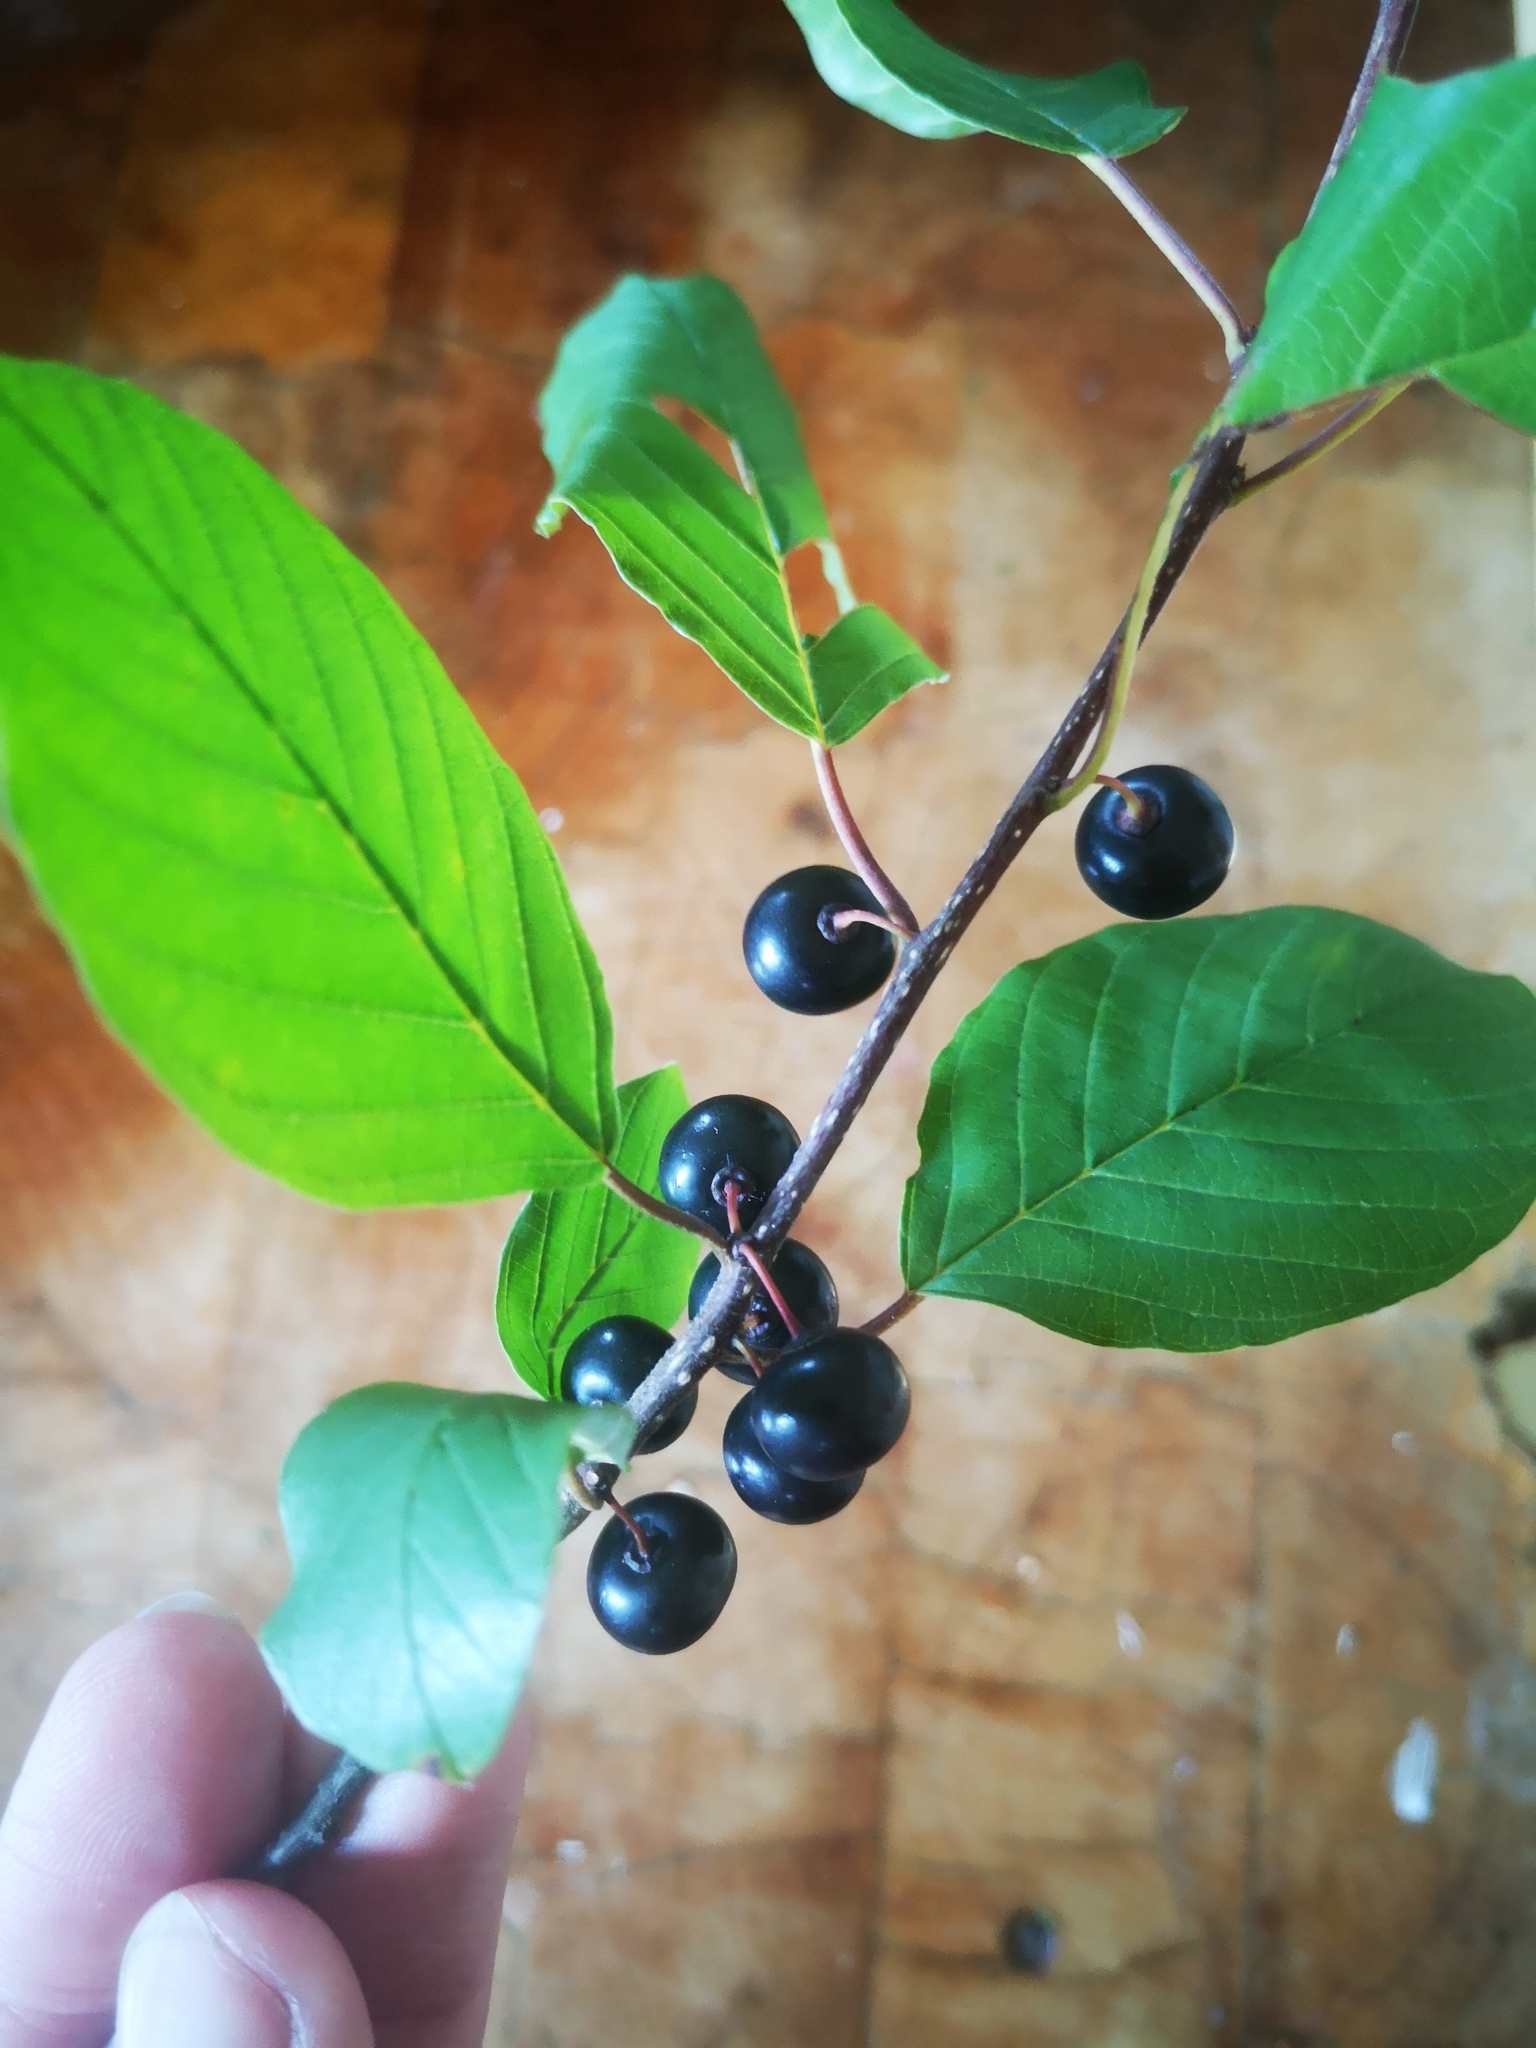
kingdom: Plantae
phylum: Tracheophyta
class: Magnoliopsida
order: Rosales
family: Rhamnaceae
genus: Frangula
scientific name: Frangula alnus
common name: Alder buckthorn
